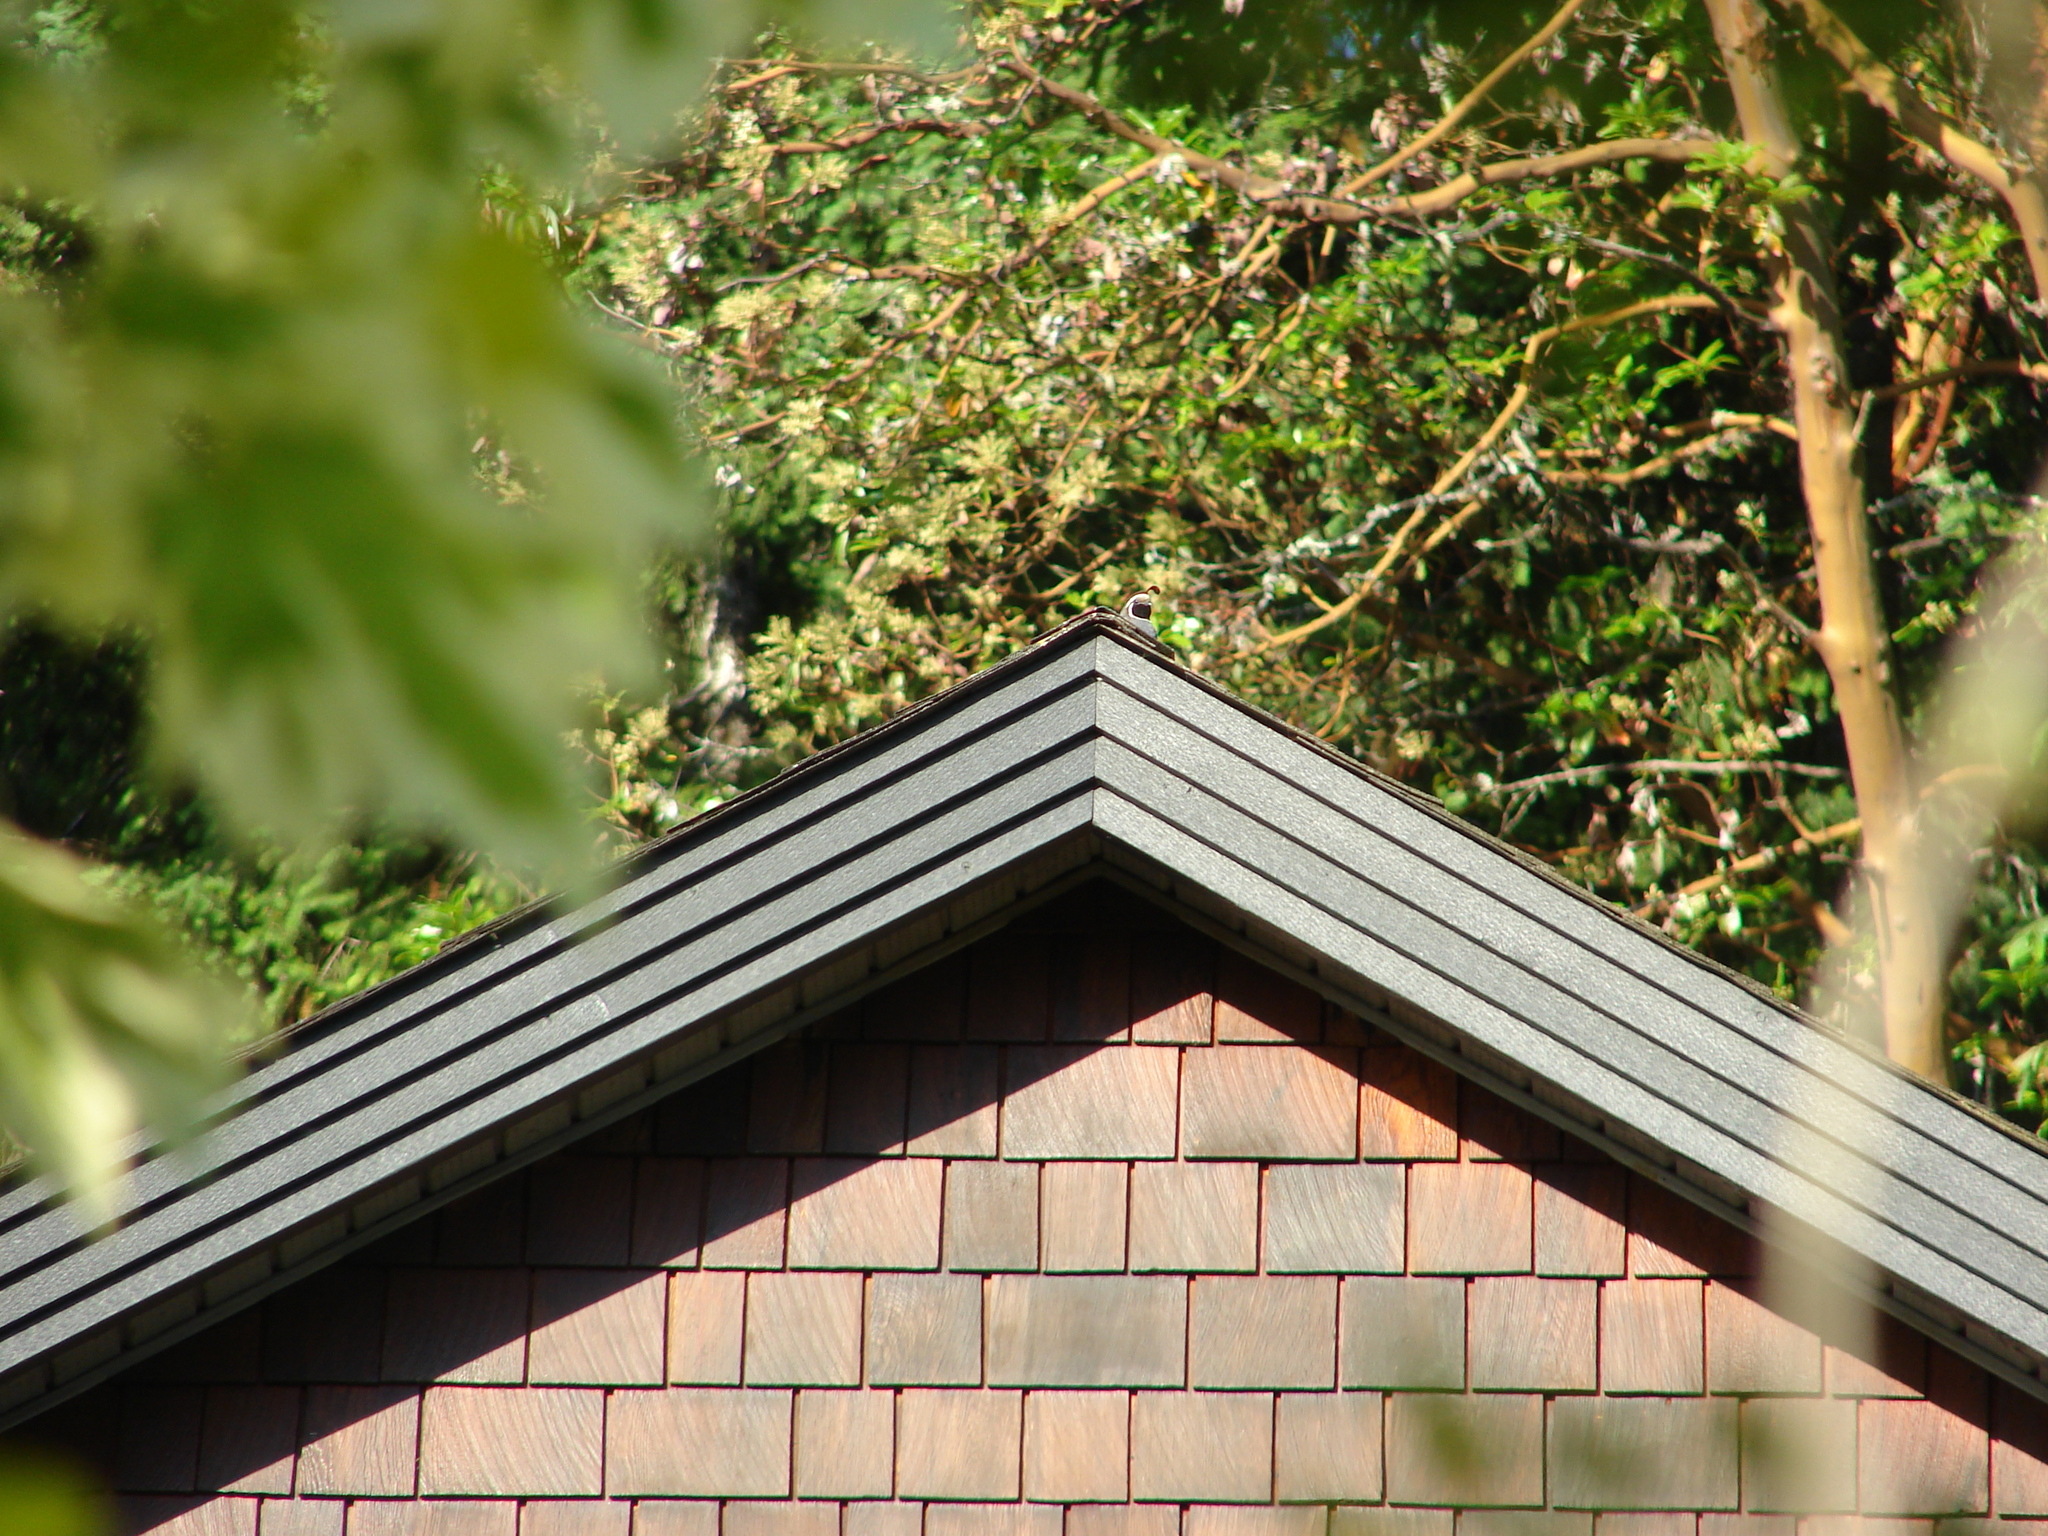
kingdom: Animalia
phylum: Chordata
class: Aves
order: Galliformes
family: Odontophoridae
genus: Callipepla
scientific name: Callipepla californica
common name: California quail
